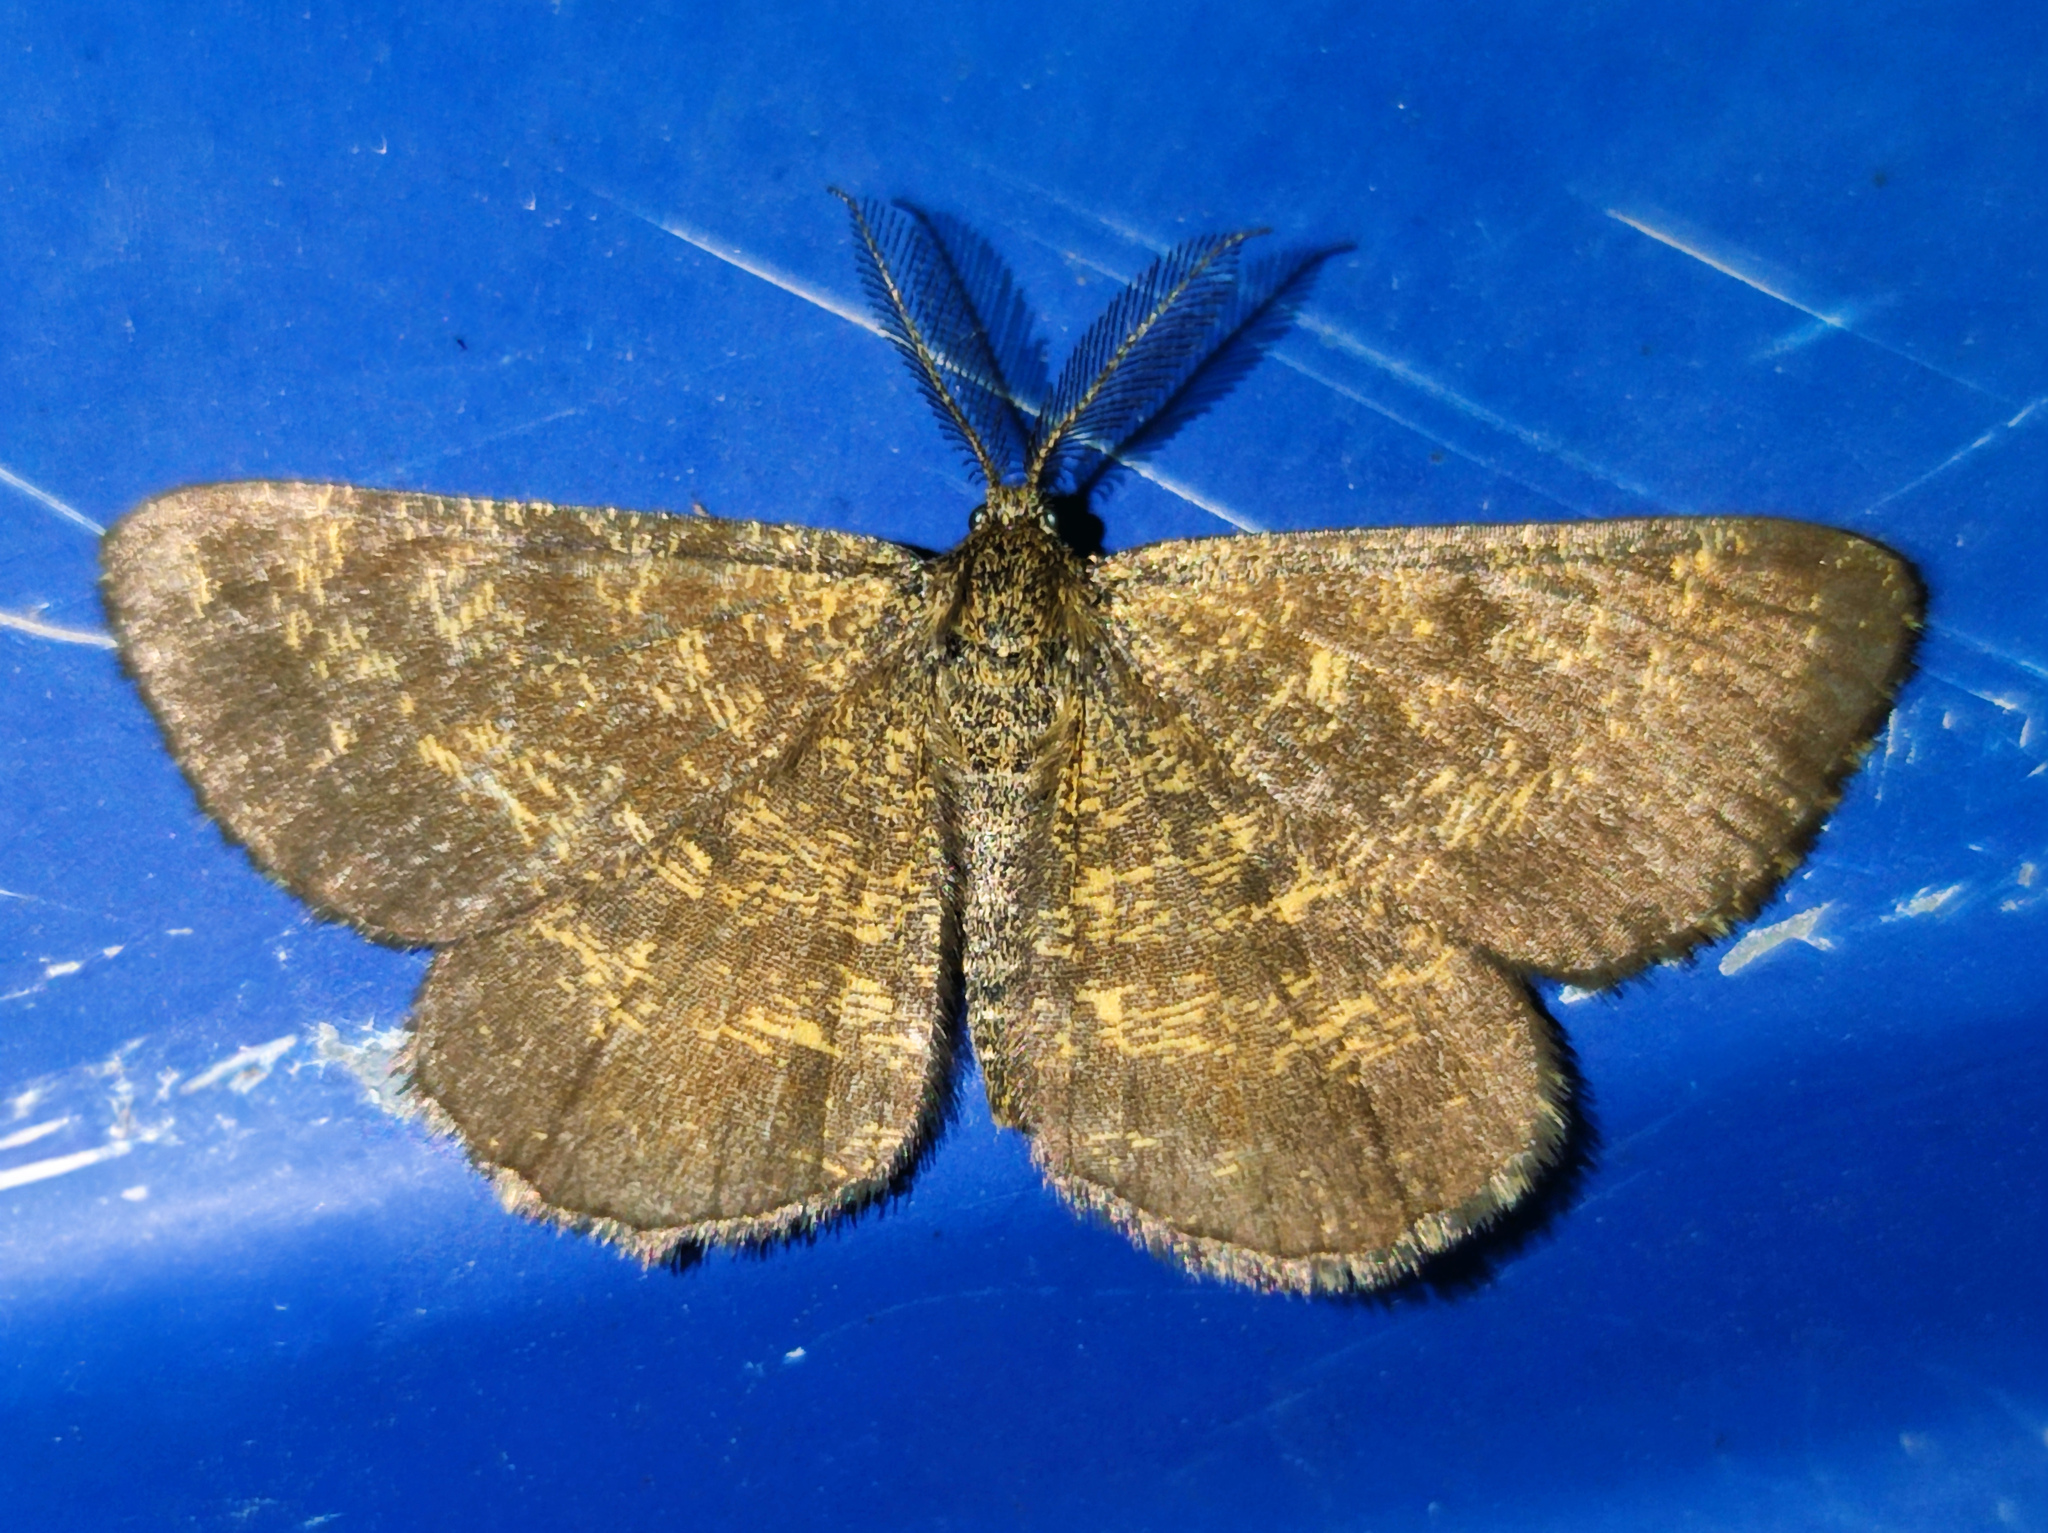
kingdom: Animalia
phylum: Arthropoda
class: Insecta
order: Lepidoptera
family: Geometridae
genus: Ematurga
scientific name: Ematurga atomaria
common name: Common heath
